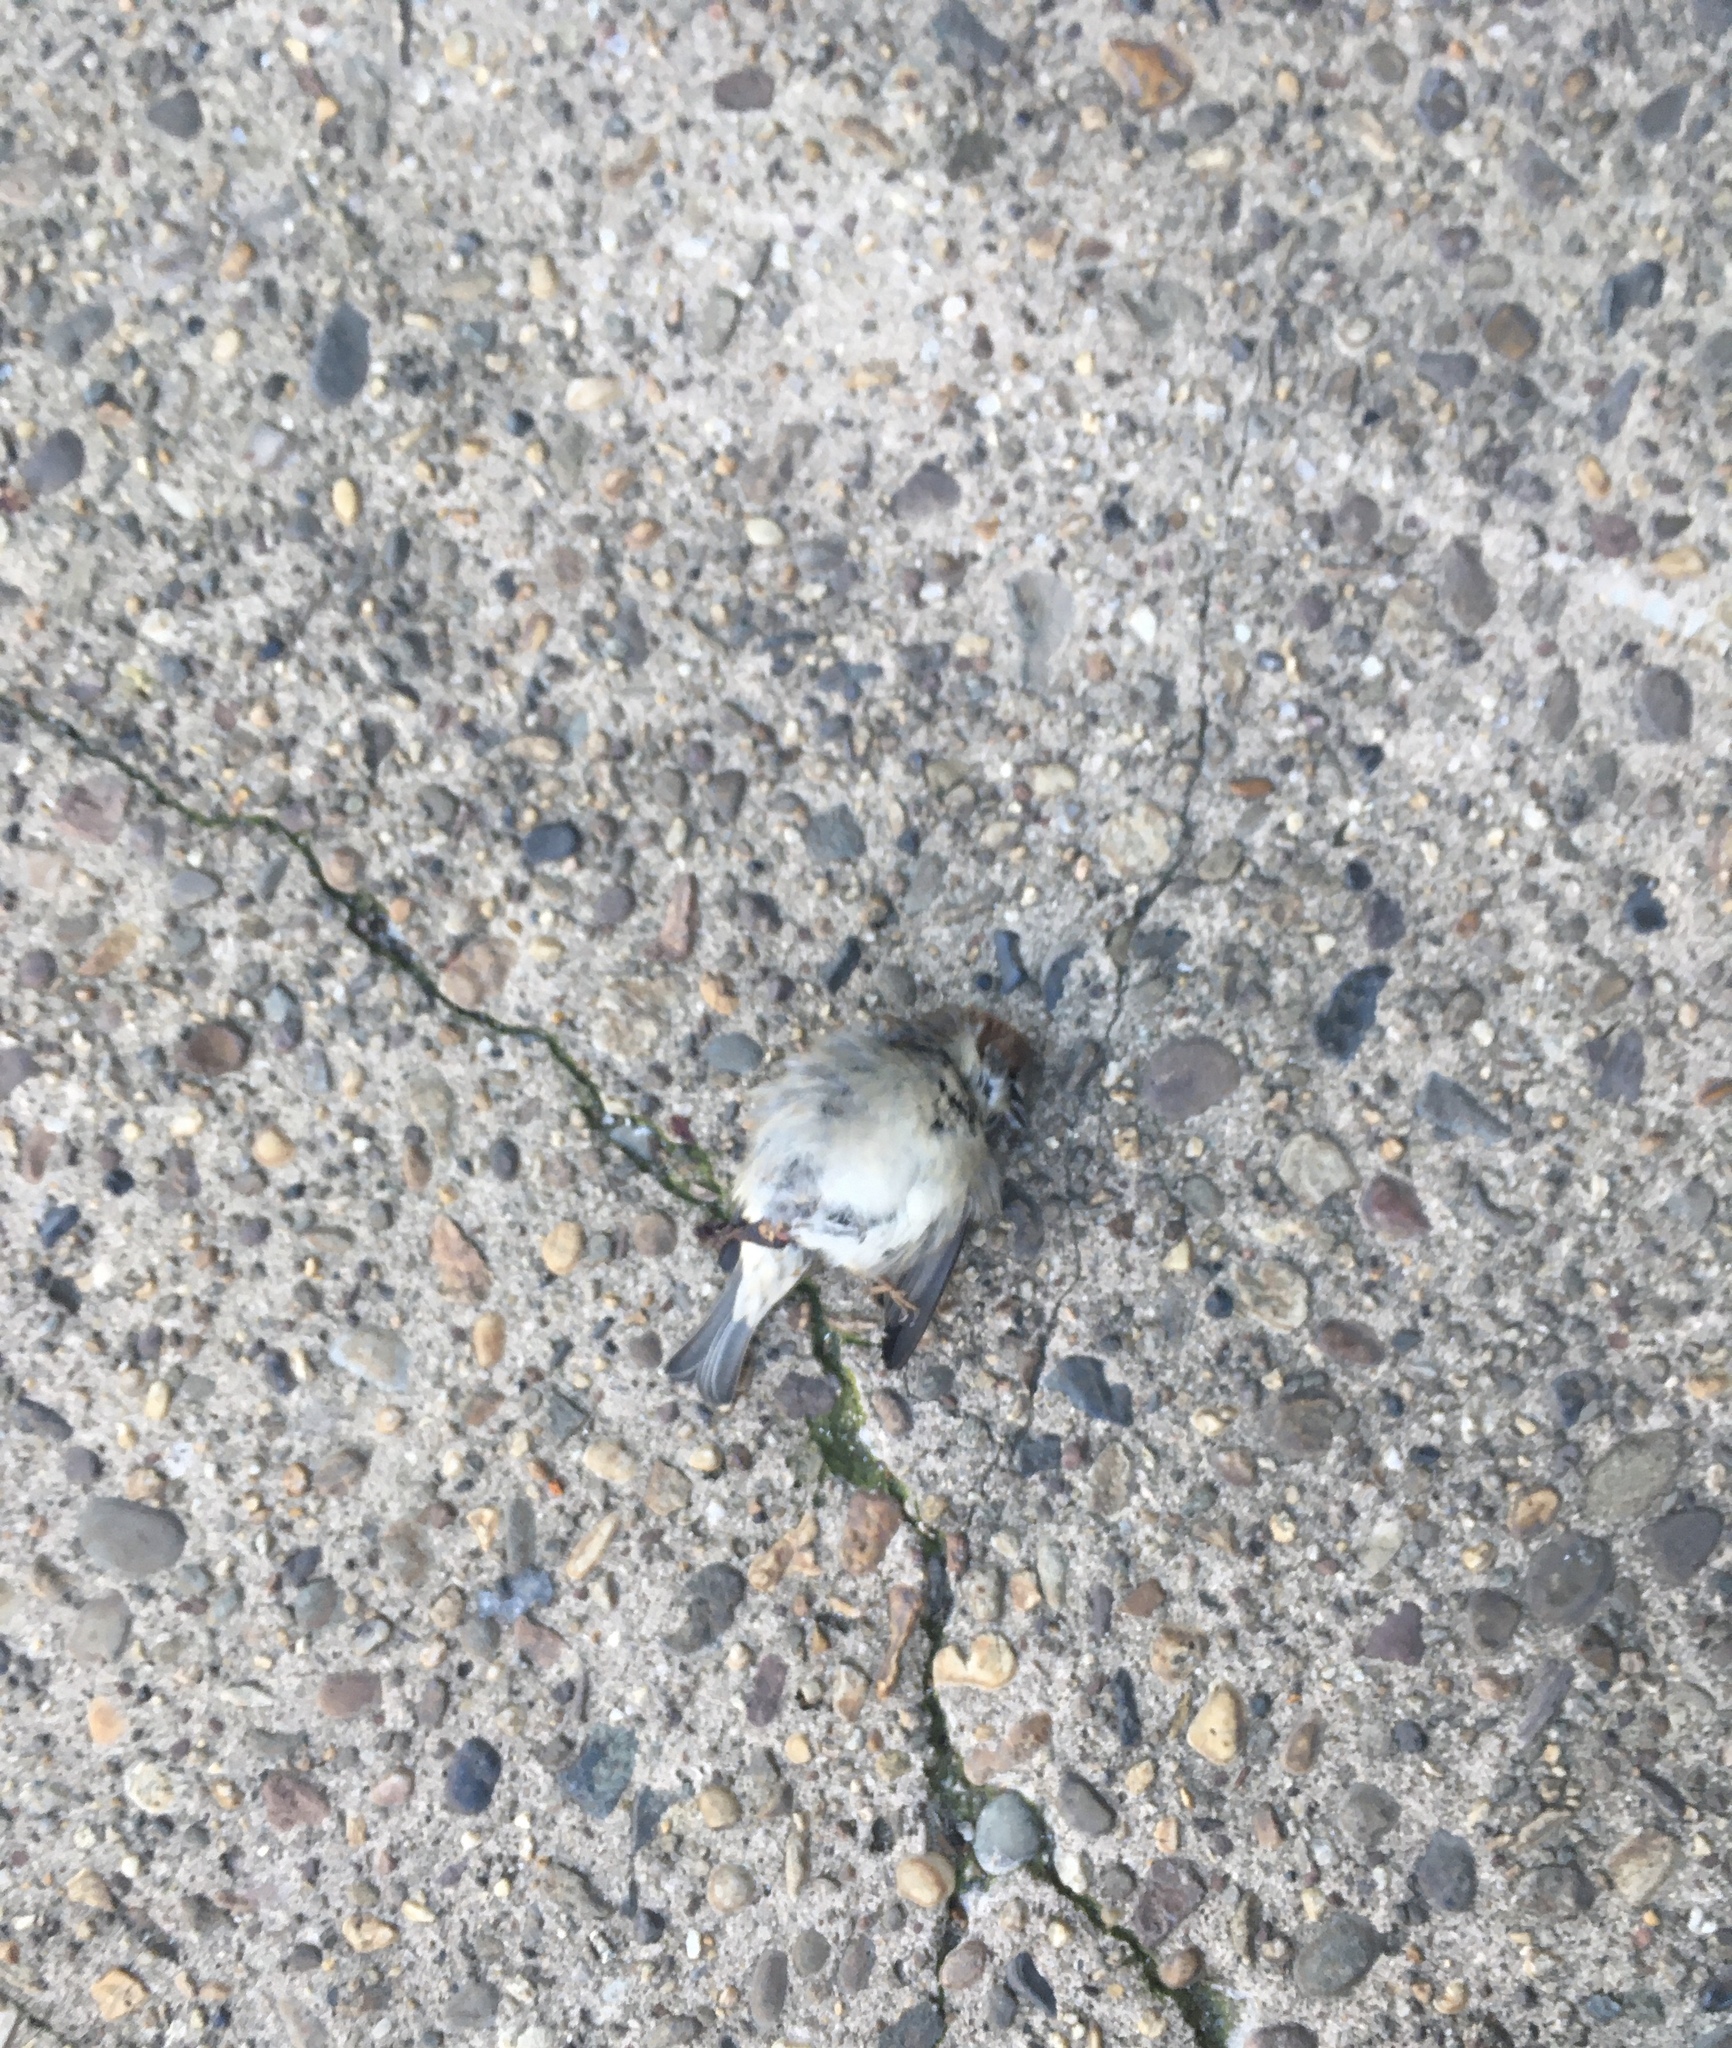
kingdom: Animalia
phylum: Chordata
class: Aves
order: Passeriformes
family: Passeridae
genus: Passer
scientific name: Passer domesticus
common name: House sparrow
